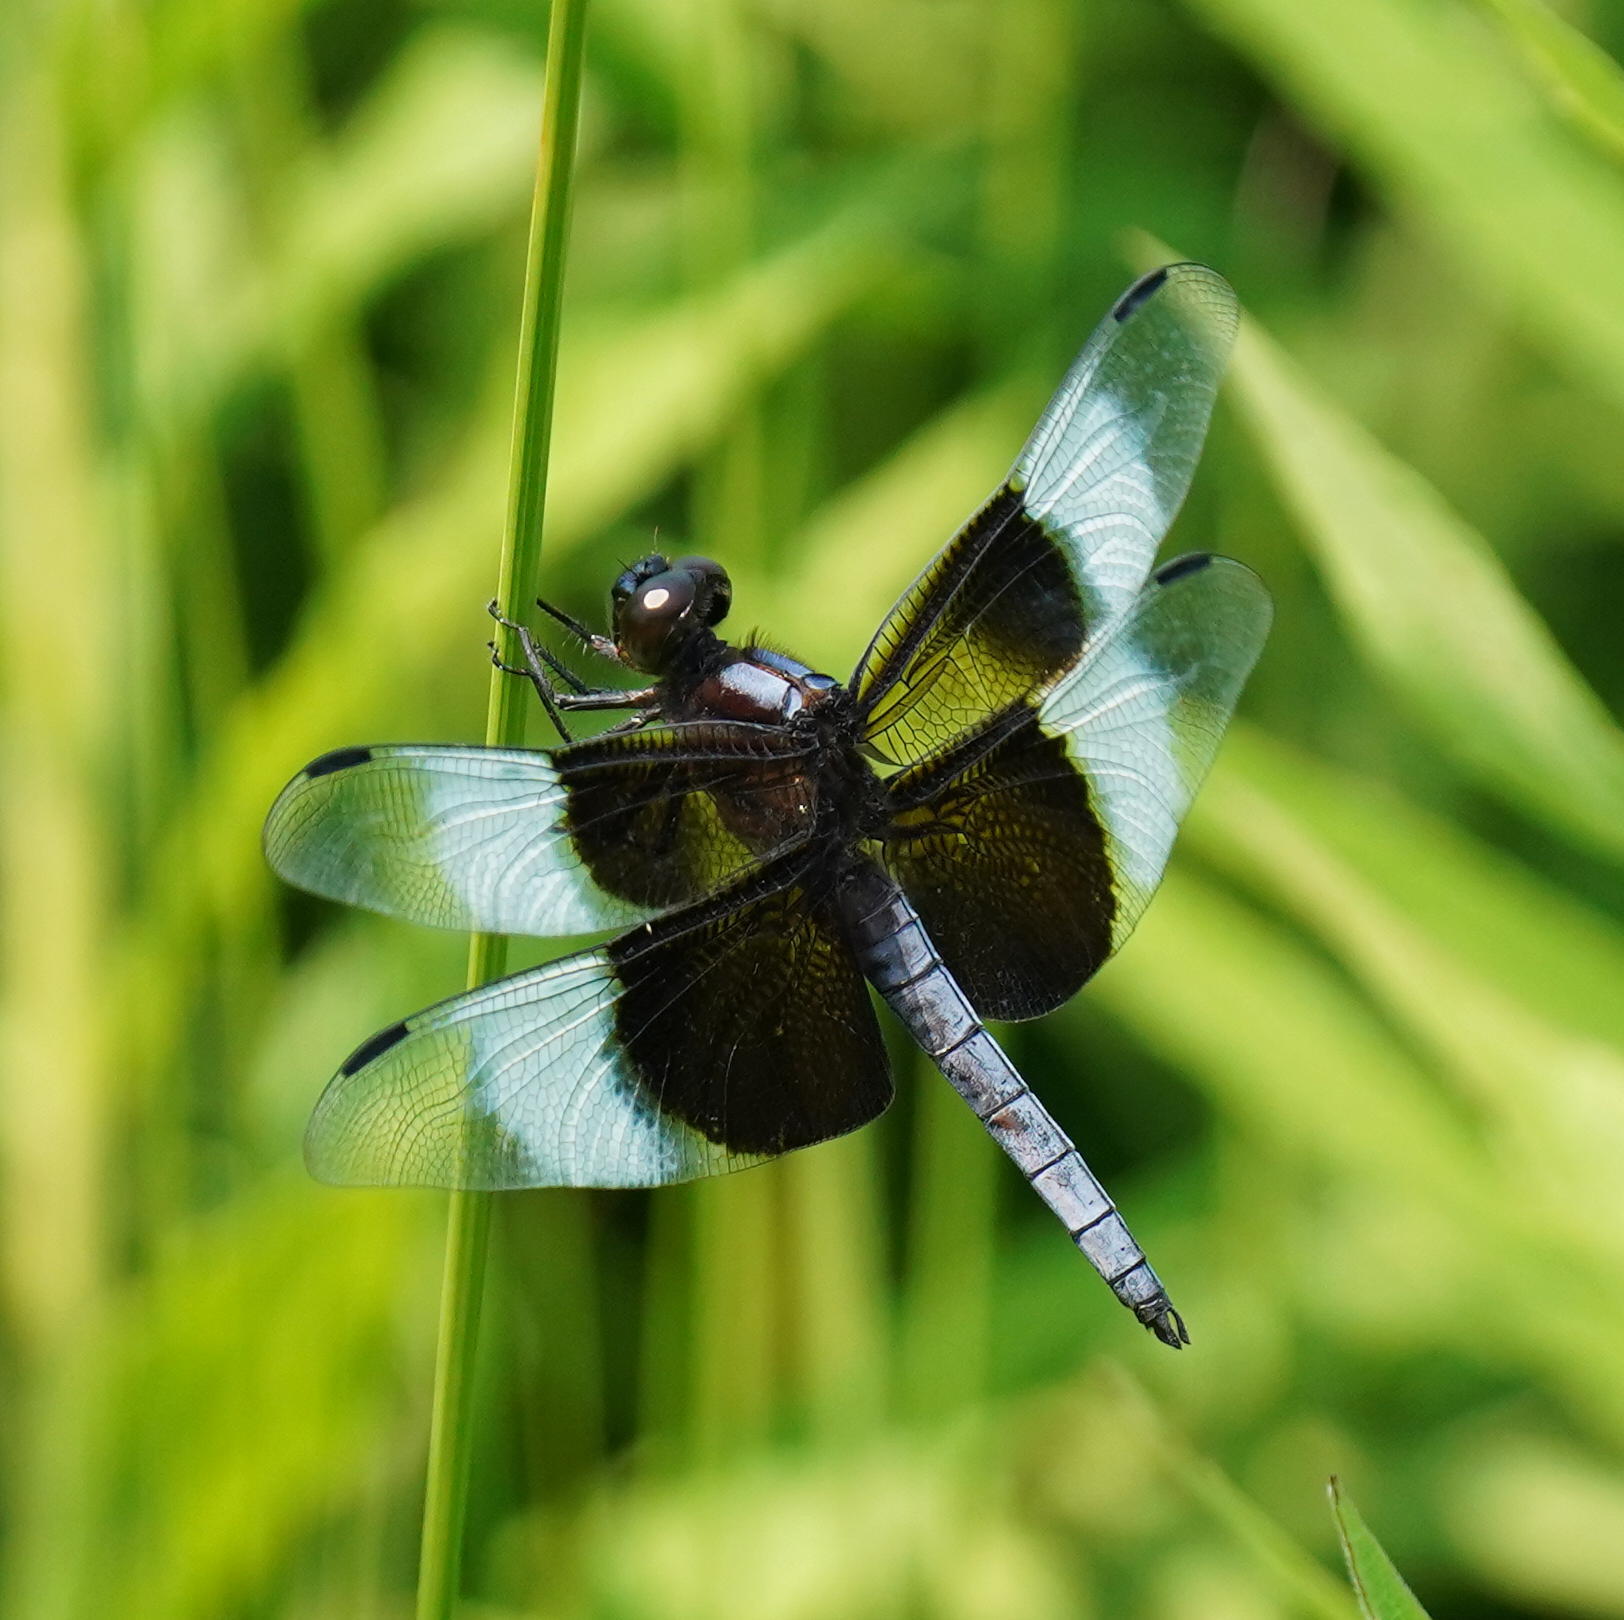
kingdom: Animalia
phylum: Arthropoda
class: Insecta
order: Odonata
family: Libellulidae
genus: Libellula
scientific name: Libellula luctuosa
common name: Widow skimmer
